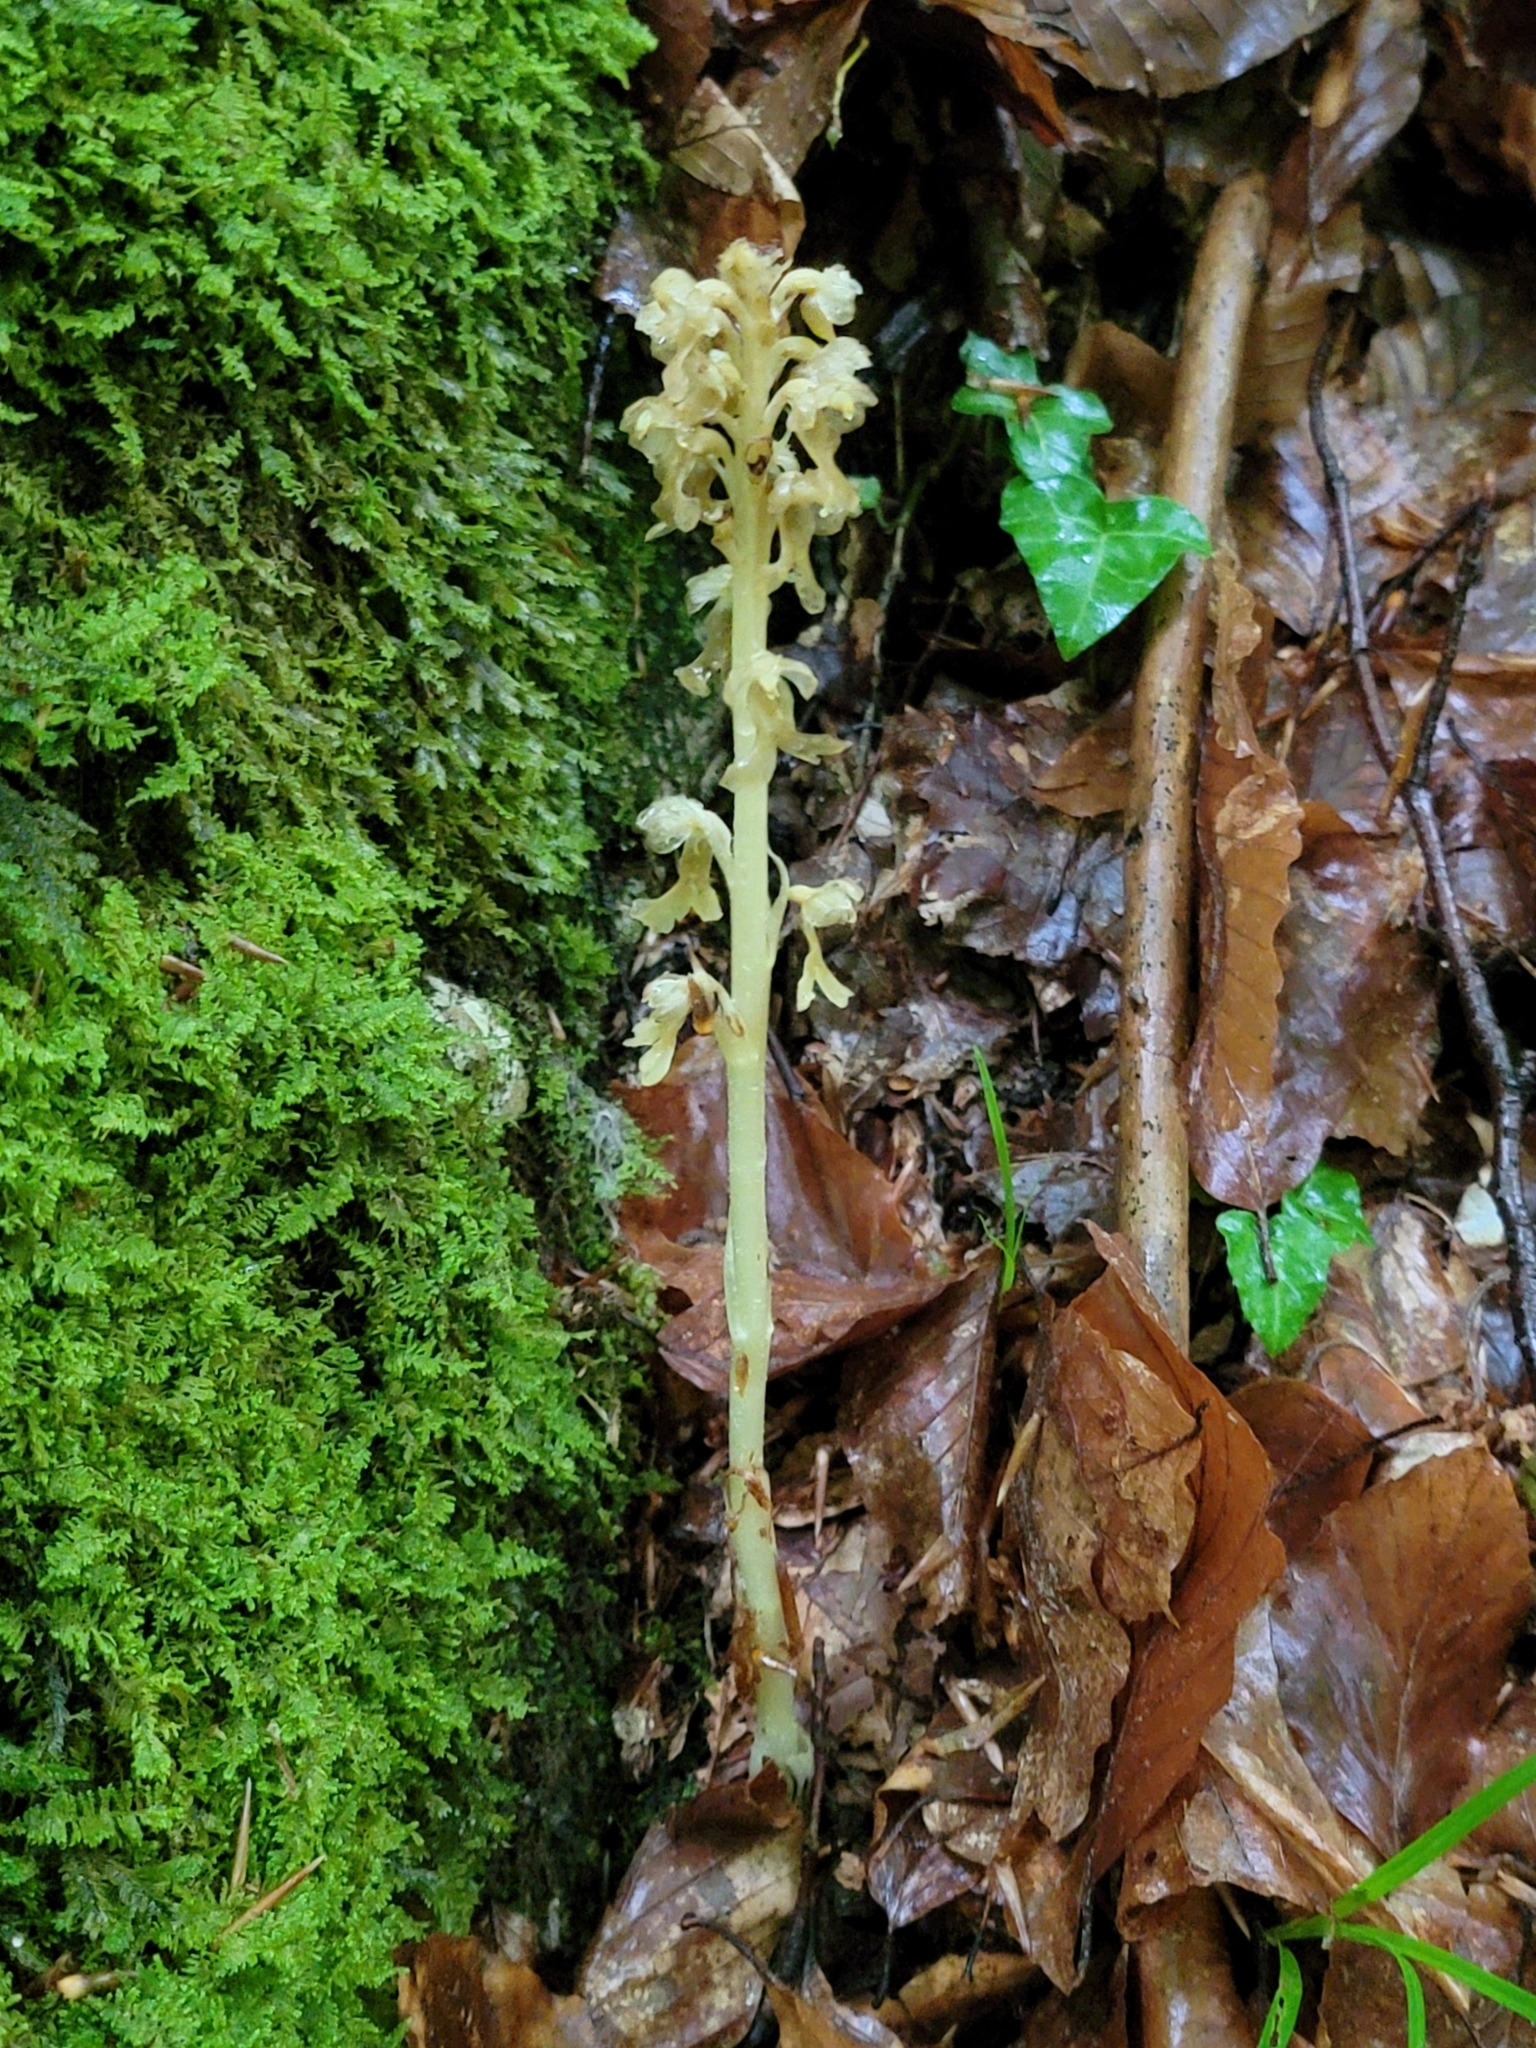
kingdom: Plantae
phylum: Tracheophyta
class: Liliopsida
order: Asparagales
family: Orchidaceae
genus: Neottia
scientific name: Neottia nidus-avis
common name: Bird's-nest orchid
